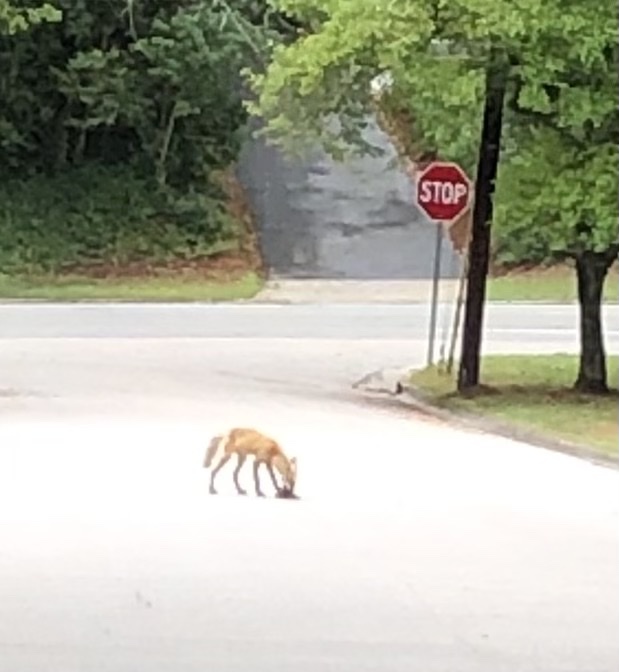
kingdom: Animalia
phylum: Chordata
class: Mammalia
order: Carnivora
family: Canidae
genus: Vulpes
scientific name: Vulpes vulpes
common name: Red fox
